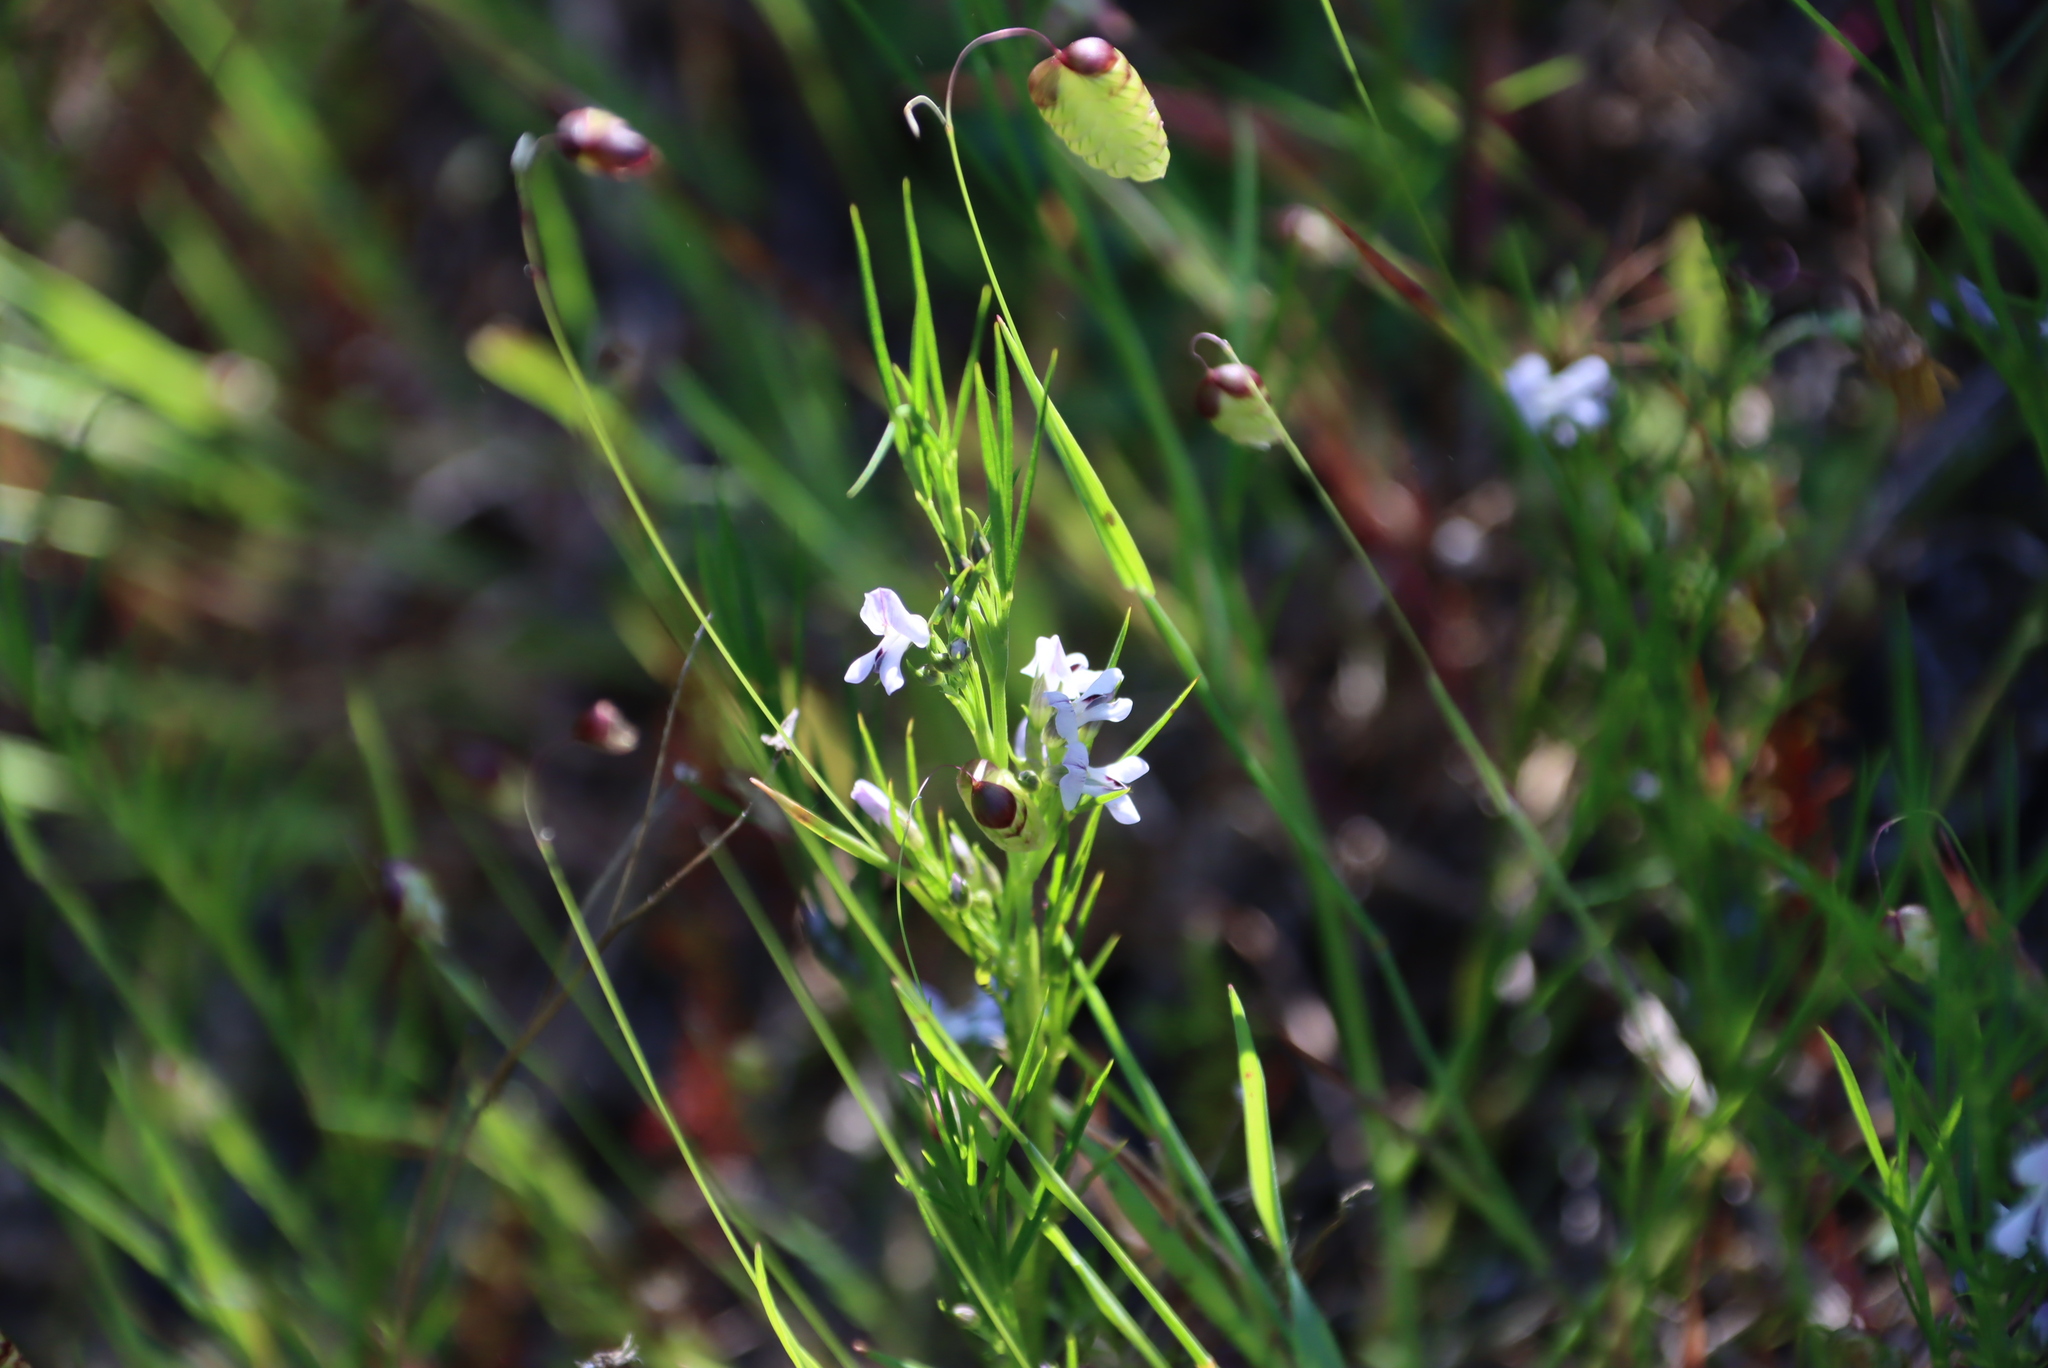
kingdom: Plantae
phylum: Tracheophyta
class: Liliopsida
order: Poales
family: Poaceae
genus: Briza
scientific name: Briza maxima
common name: Big quakinggrass
